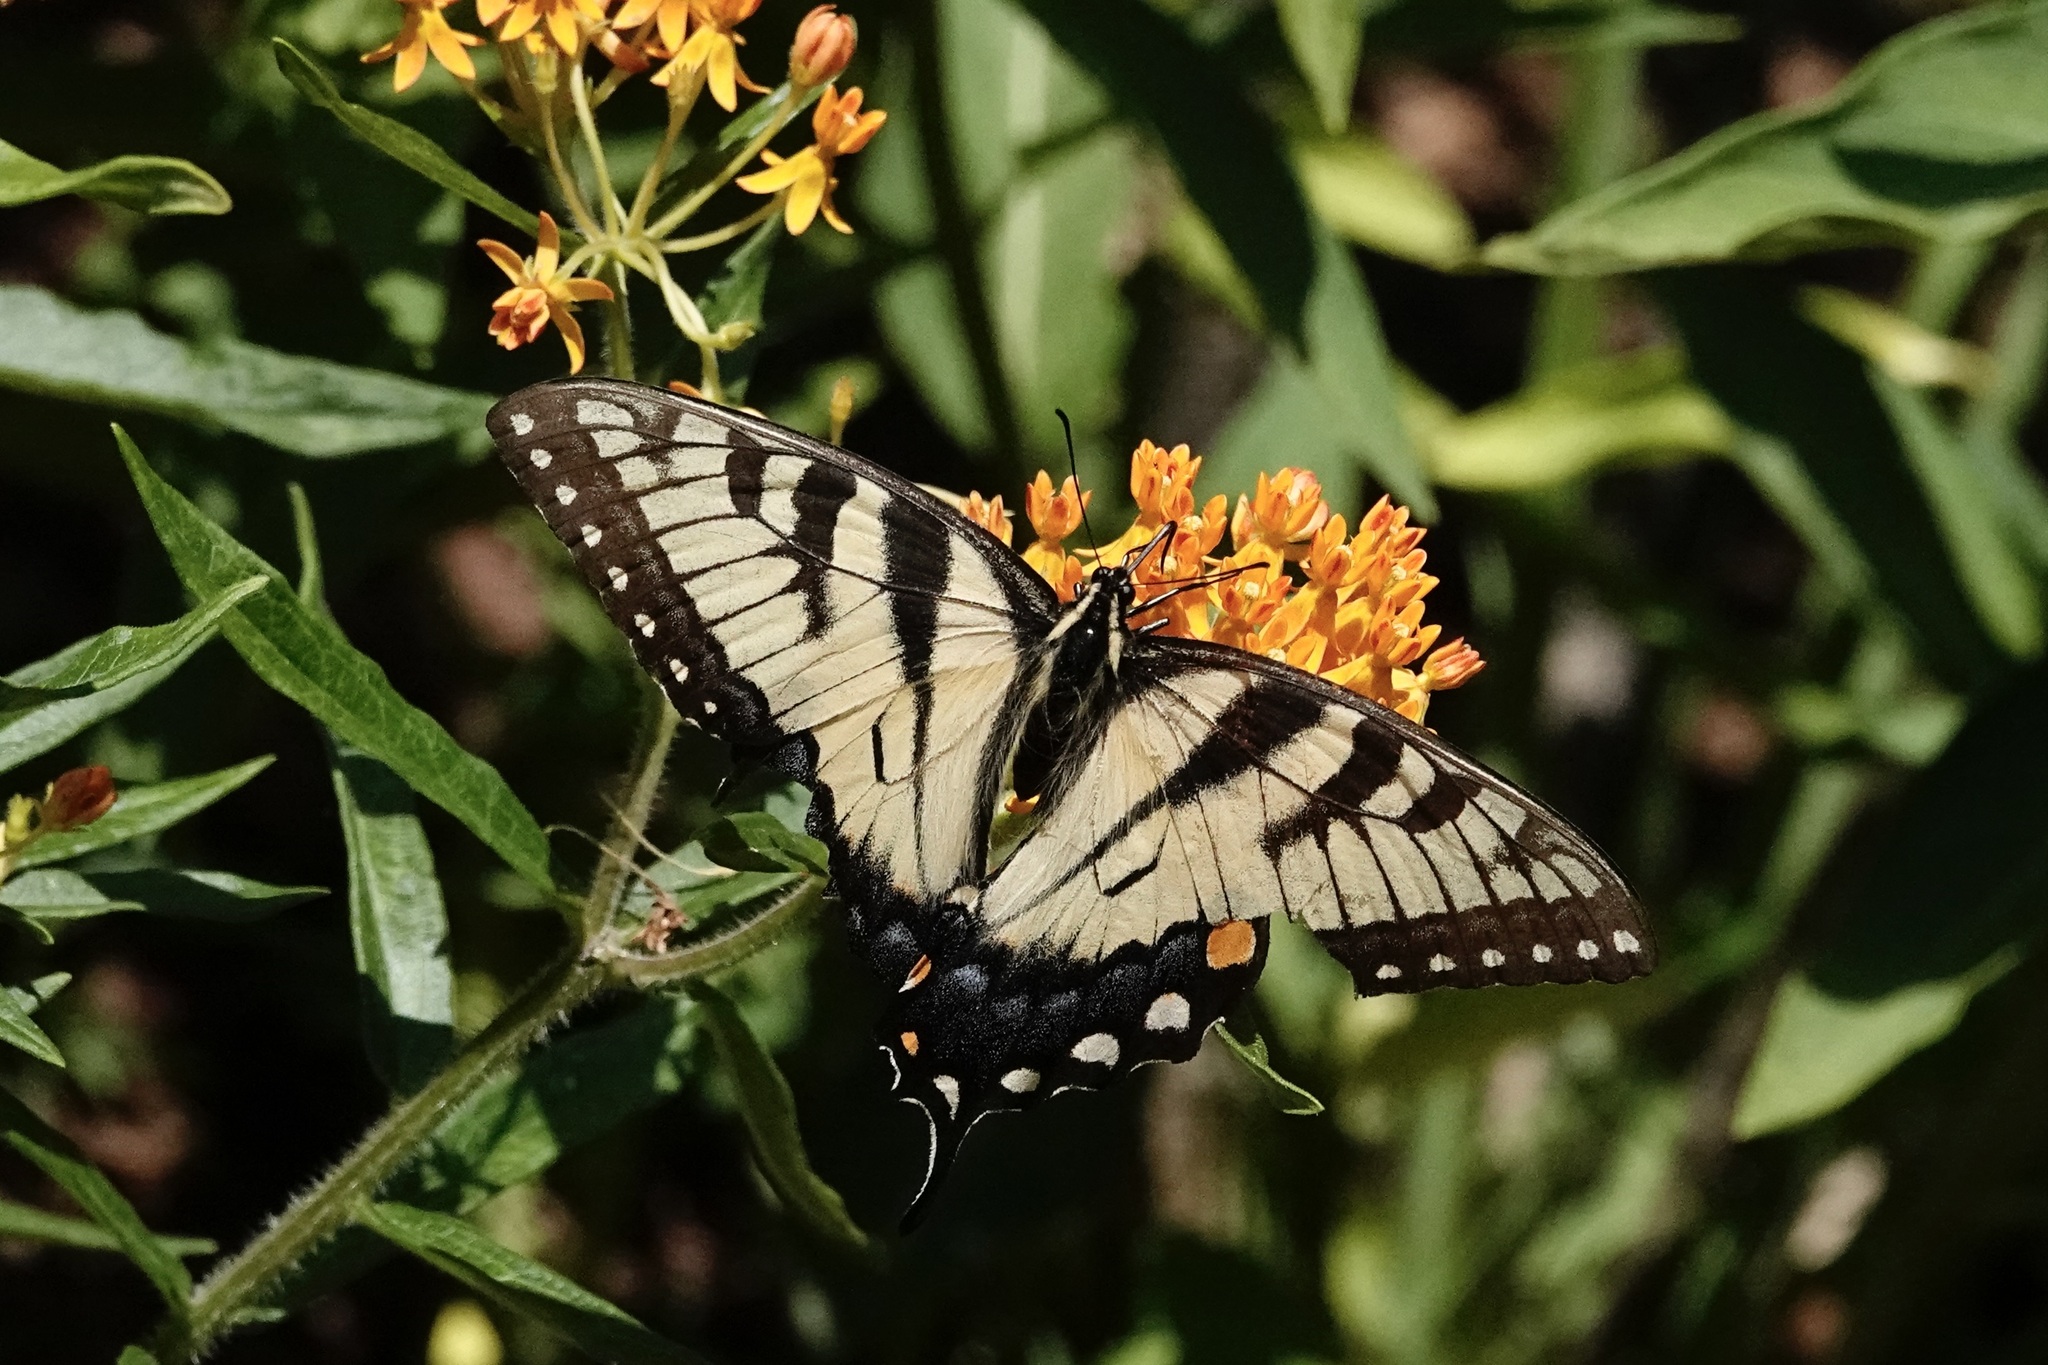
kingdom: Animalia
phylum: Arthropoda
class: Insecta
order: Lepidoptera
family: Papilionidae
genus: Papilio
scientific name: Papilio glaucus
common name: Tiger swallowtail
